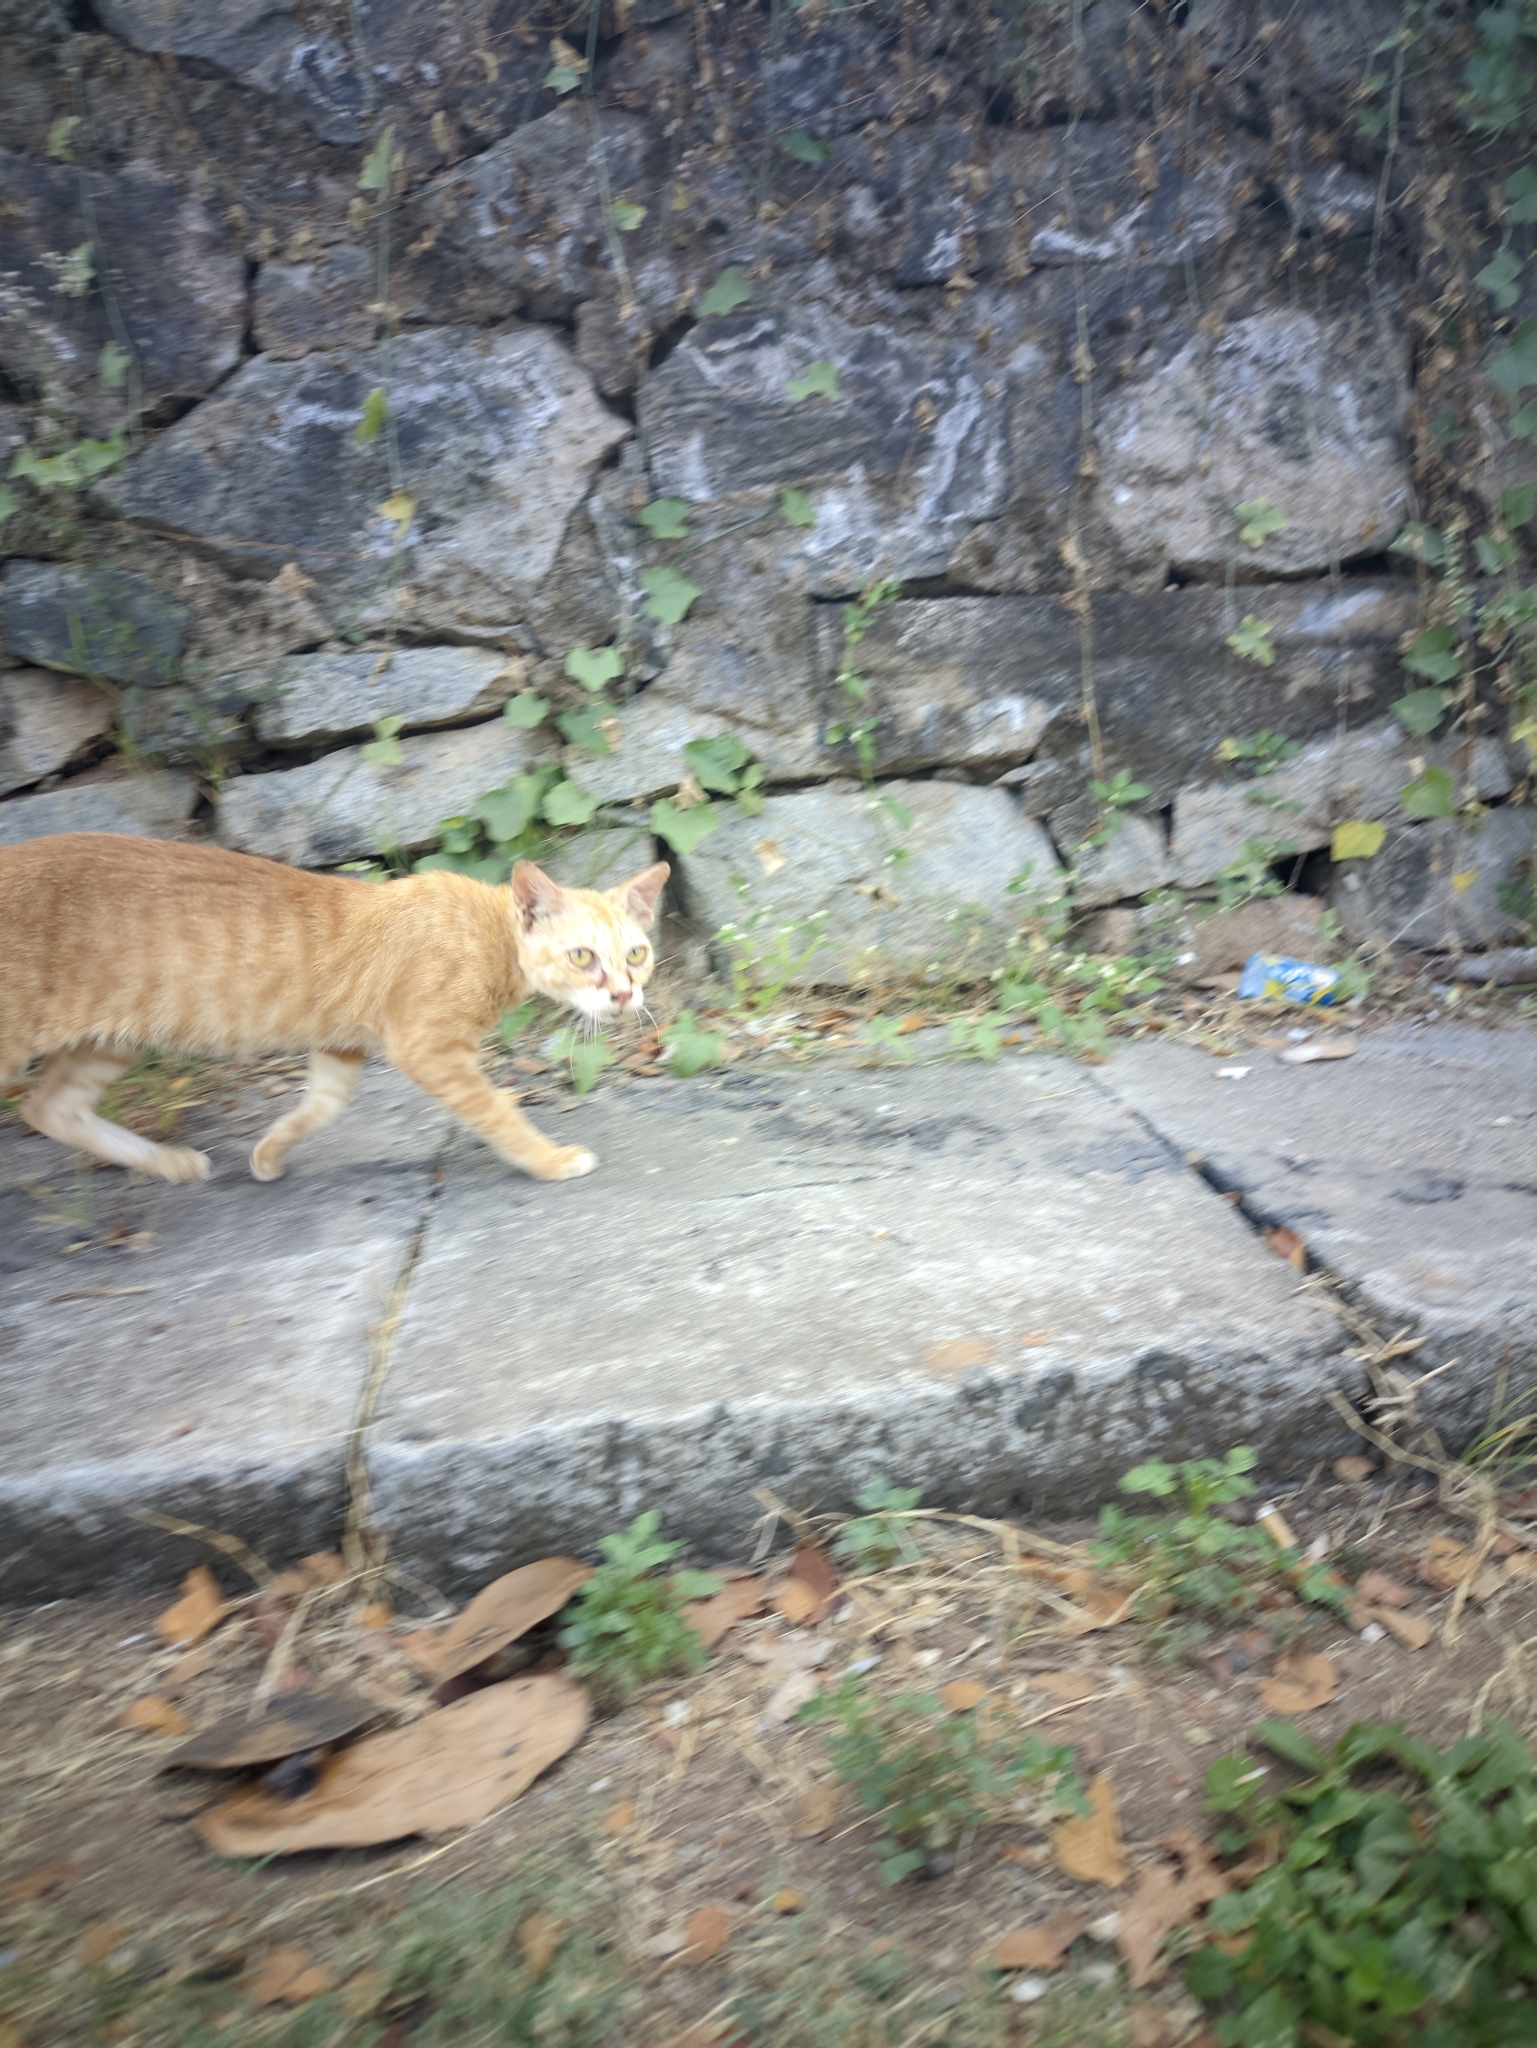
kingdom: Animalia
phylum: Chordata
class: Mammalia
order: Carnivora
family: Felidae
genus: Felis
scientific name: Felis catus
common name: Domestic cat
